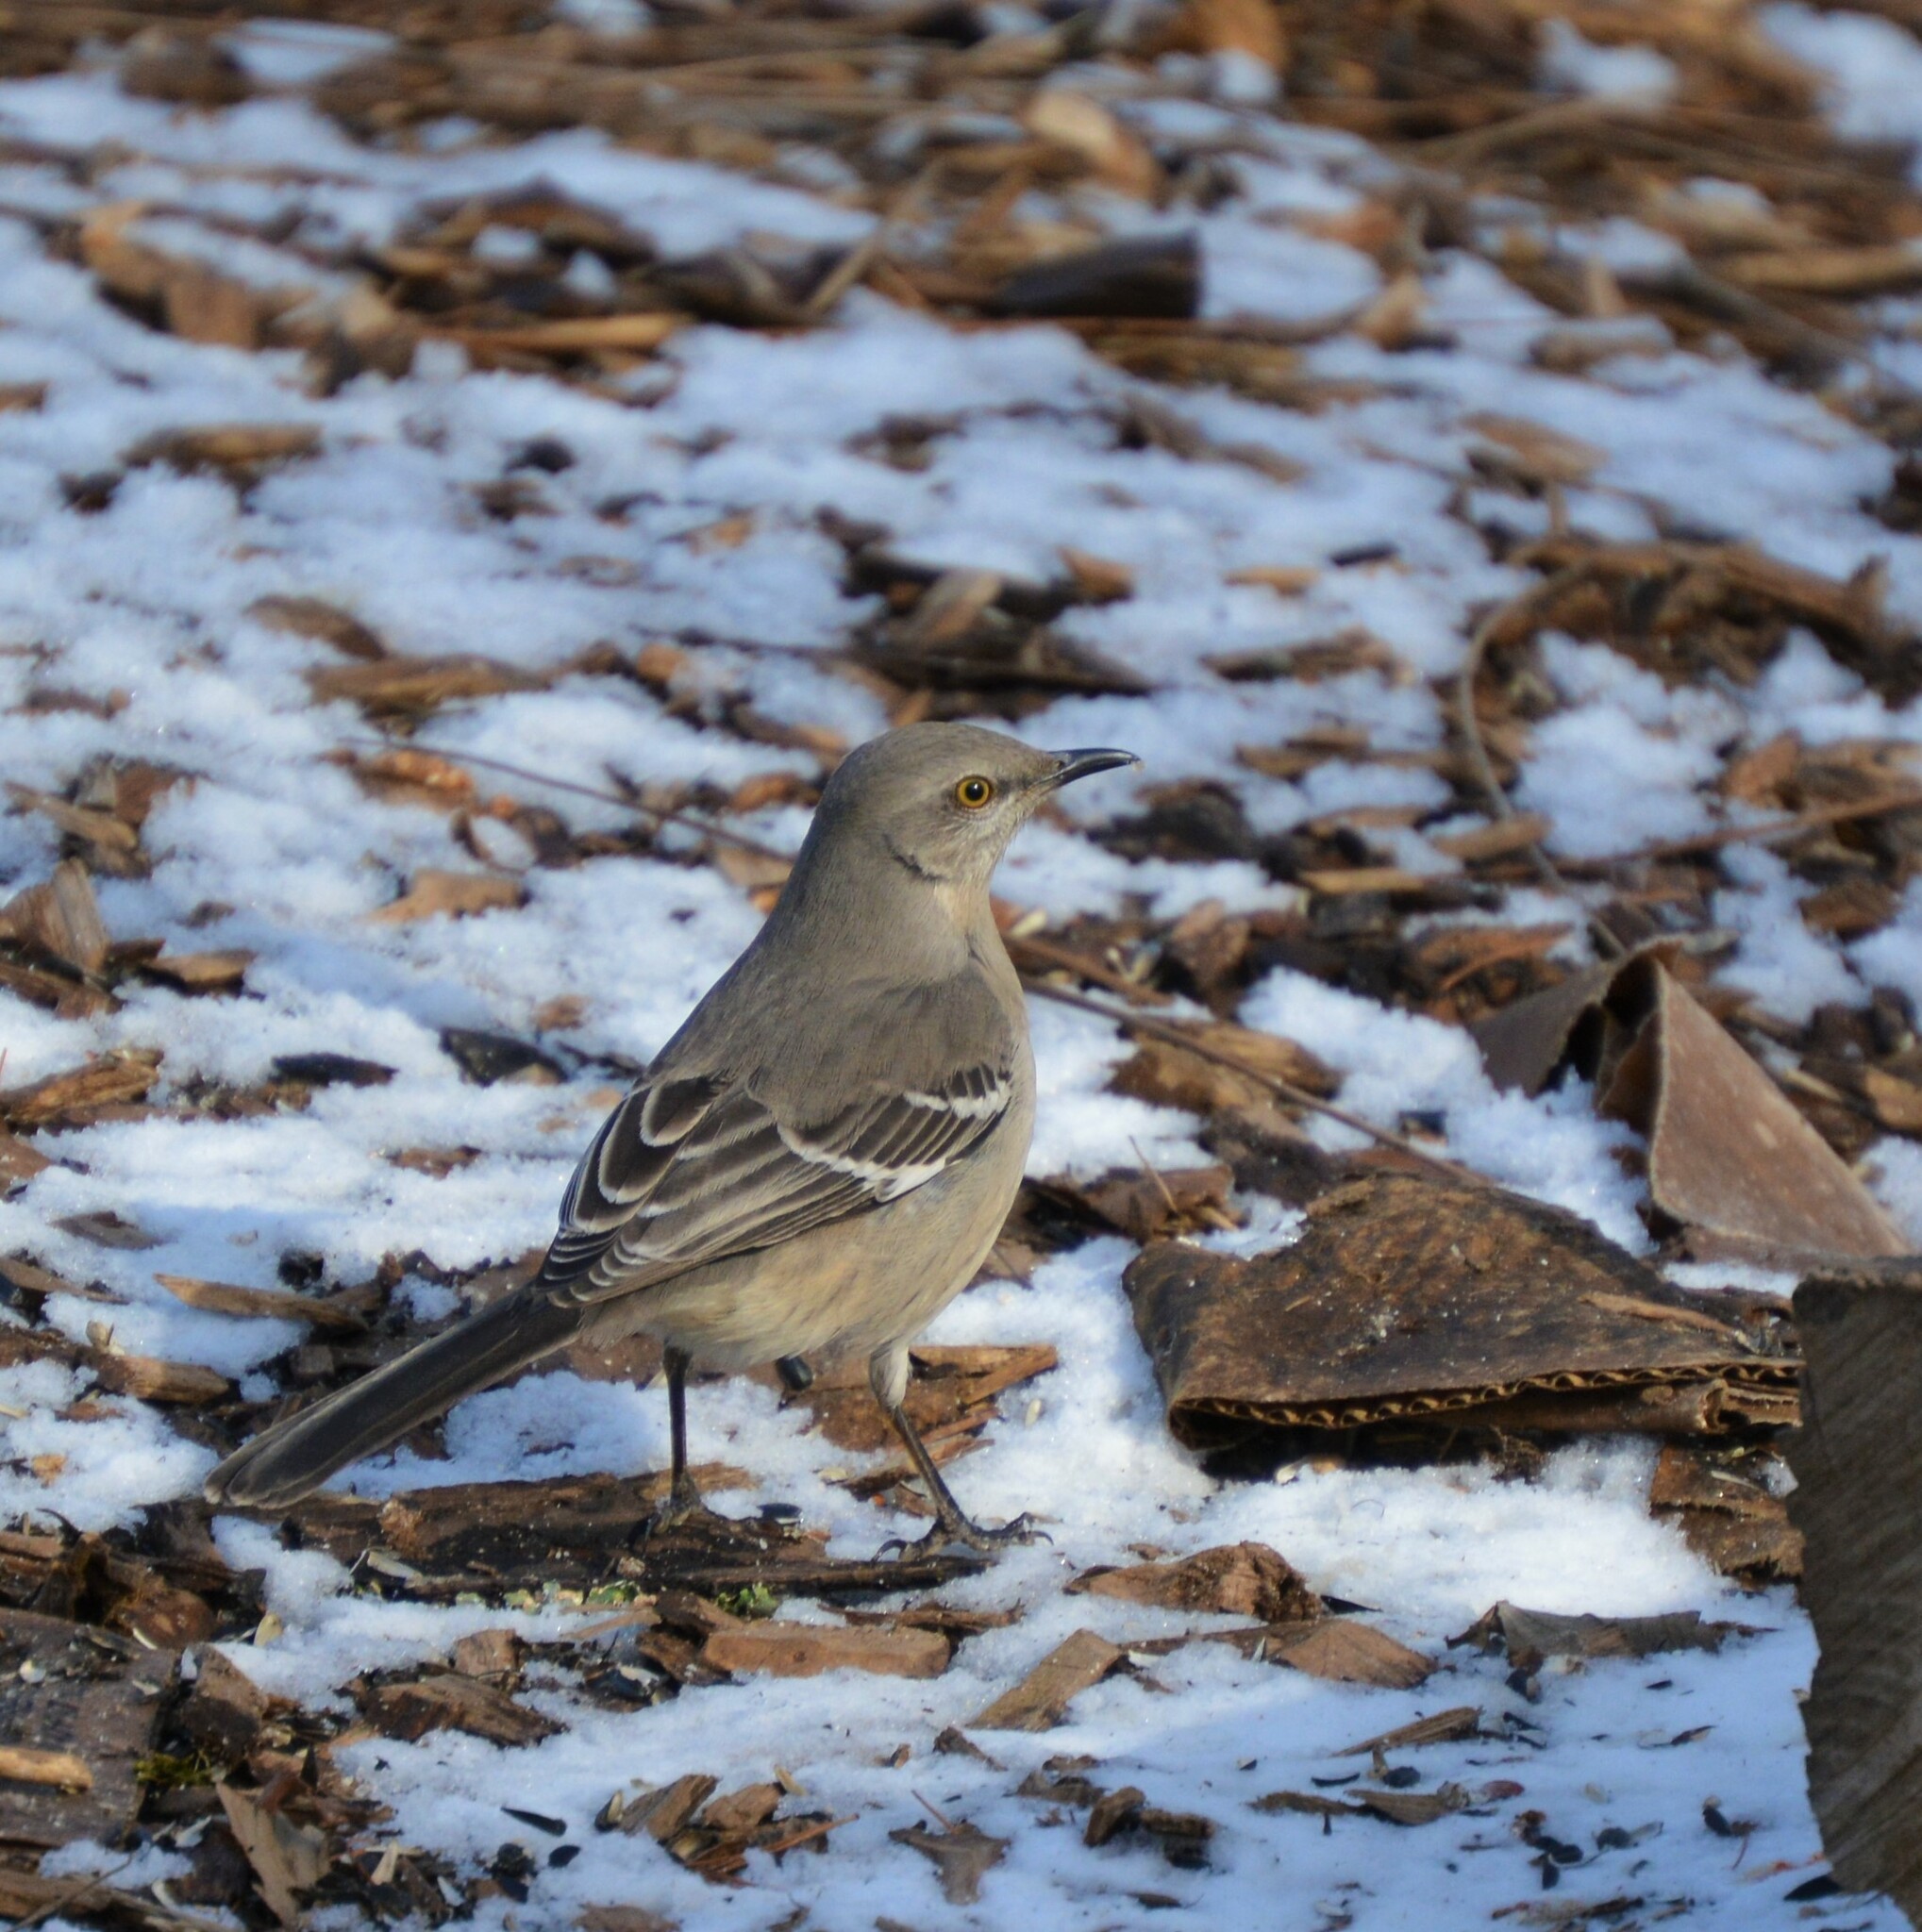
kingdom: Animalia
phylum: Chordata
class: Aves
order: Passeriformes
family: Mimidae
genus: Mimus
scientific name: Mimus polyglottos
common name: Northern mockingbird
